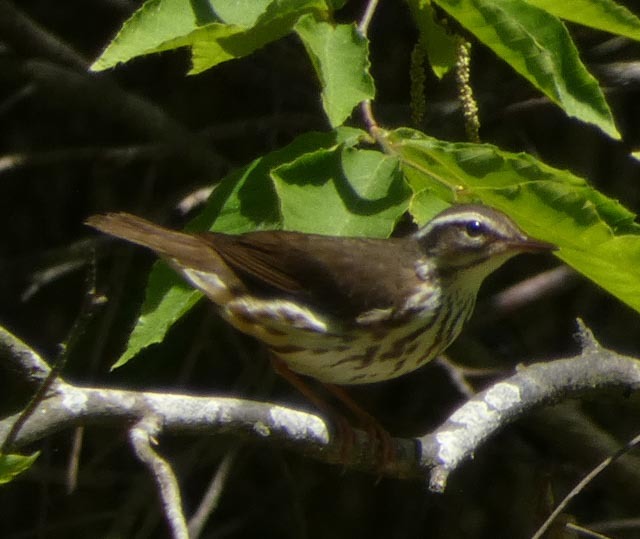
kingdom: Animalia
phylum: Chordata
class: Aves
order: Passeriformes
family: Parulidae
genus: Parkesia
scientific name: Parkesia motacilla
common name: Louisiana waterthrush
